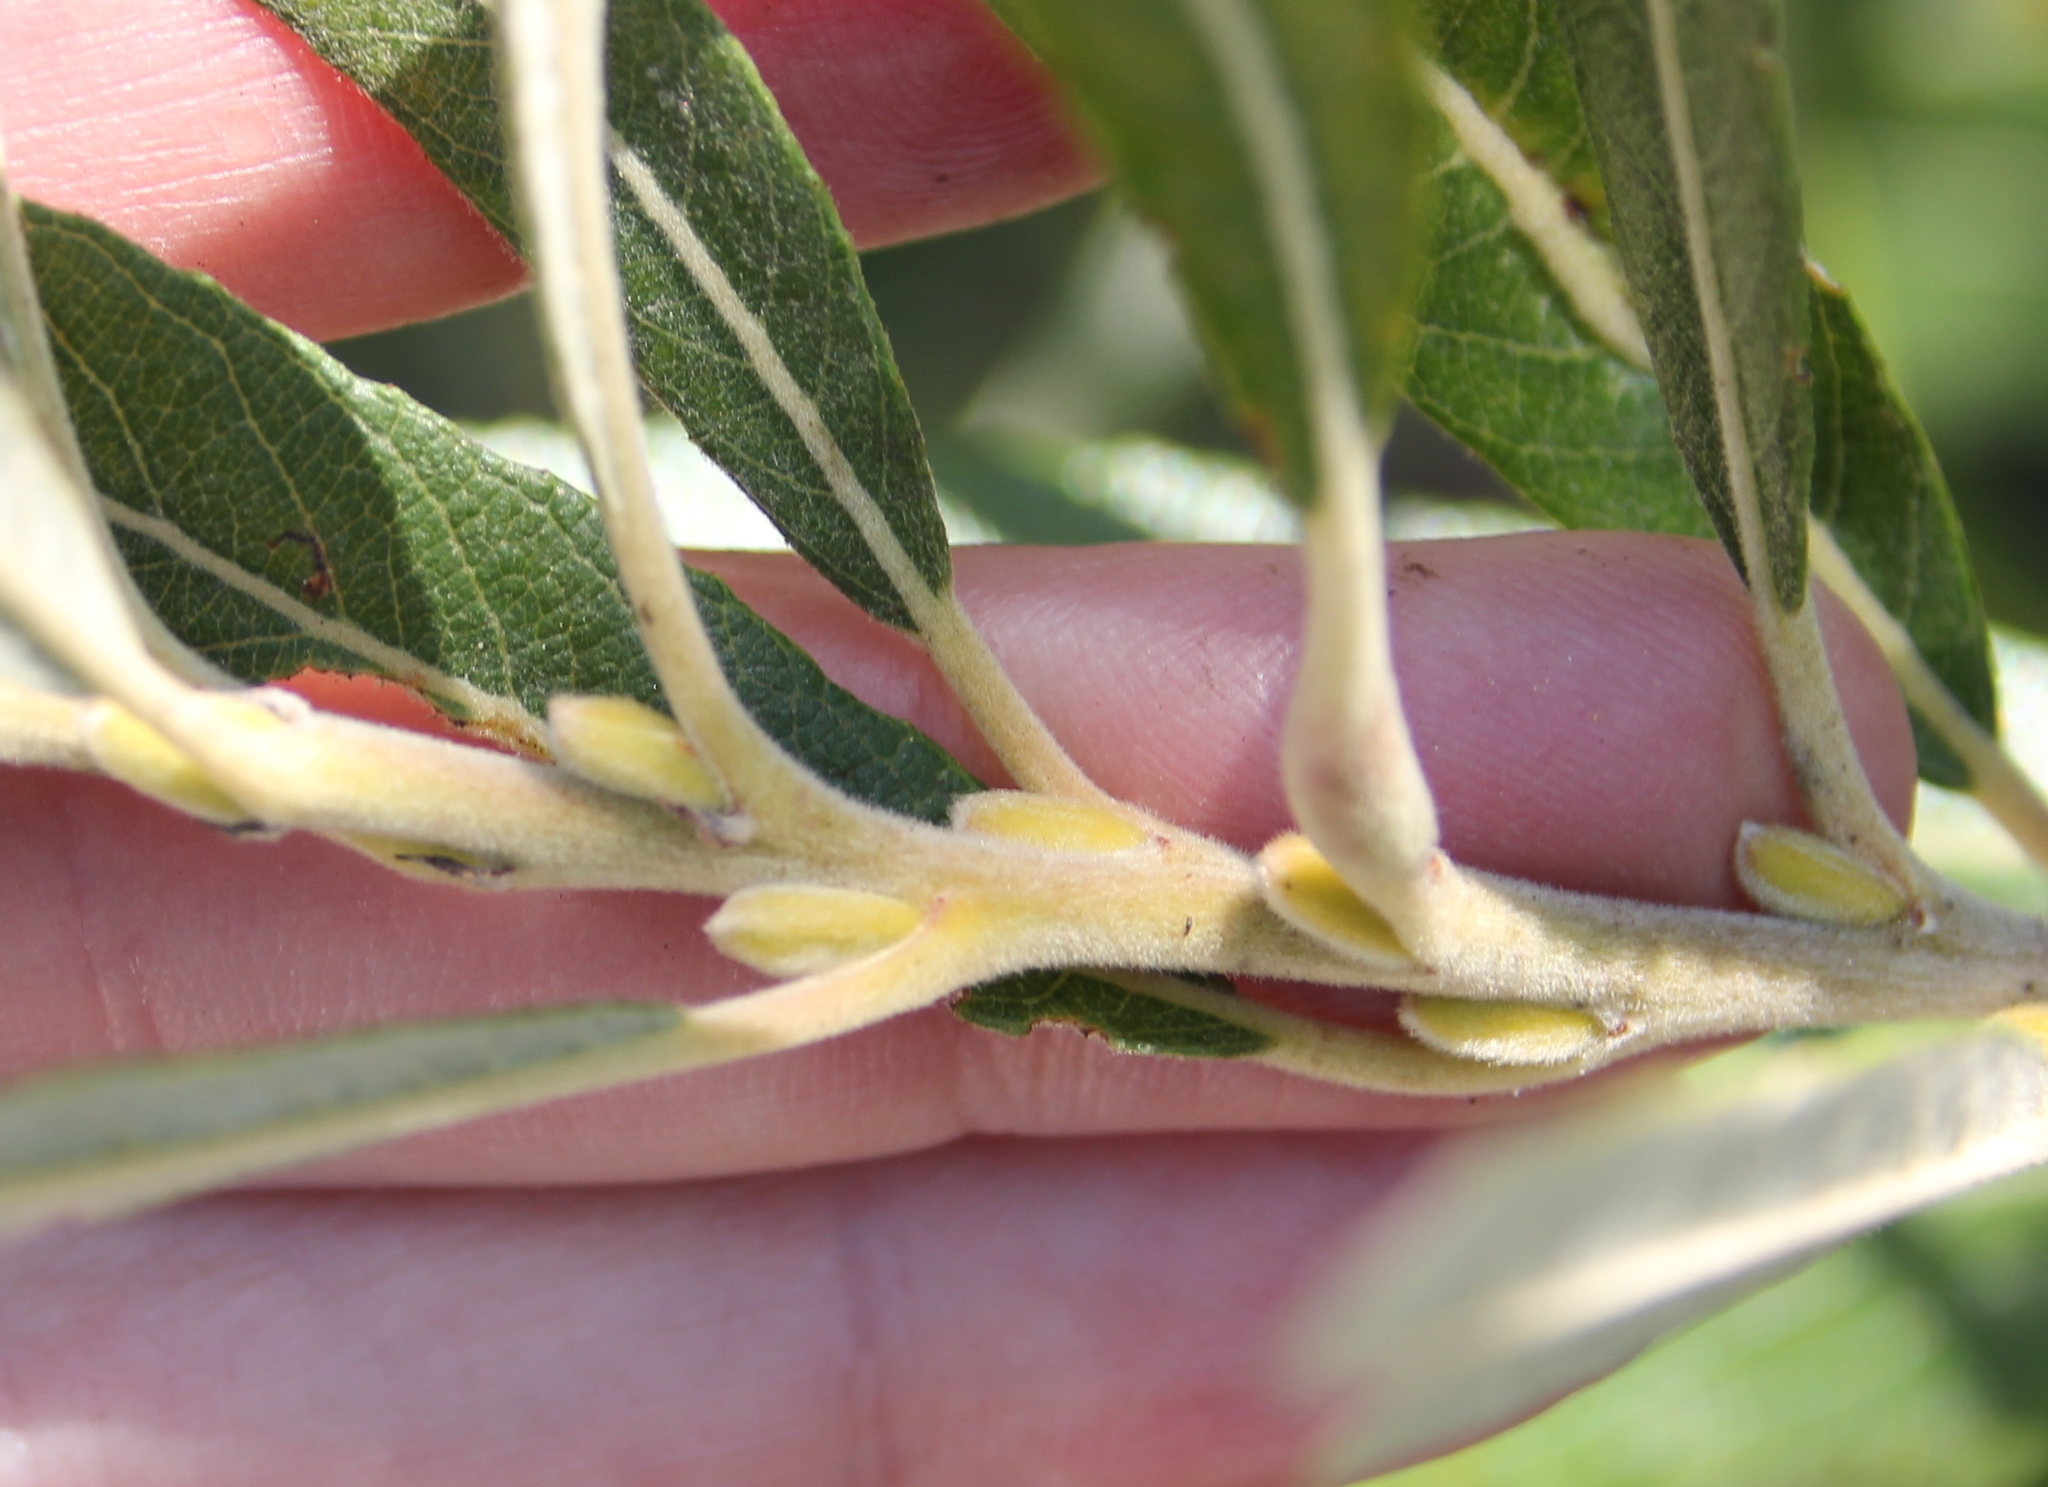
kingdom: Plantae
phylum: Tracheophyta
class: Magnoliopsida
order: Malpighiales
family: Salicaceae
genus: Salix
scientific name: Salix lasiolepis
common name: Arroyo willow
